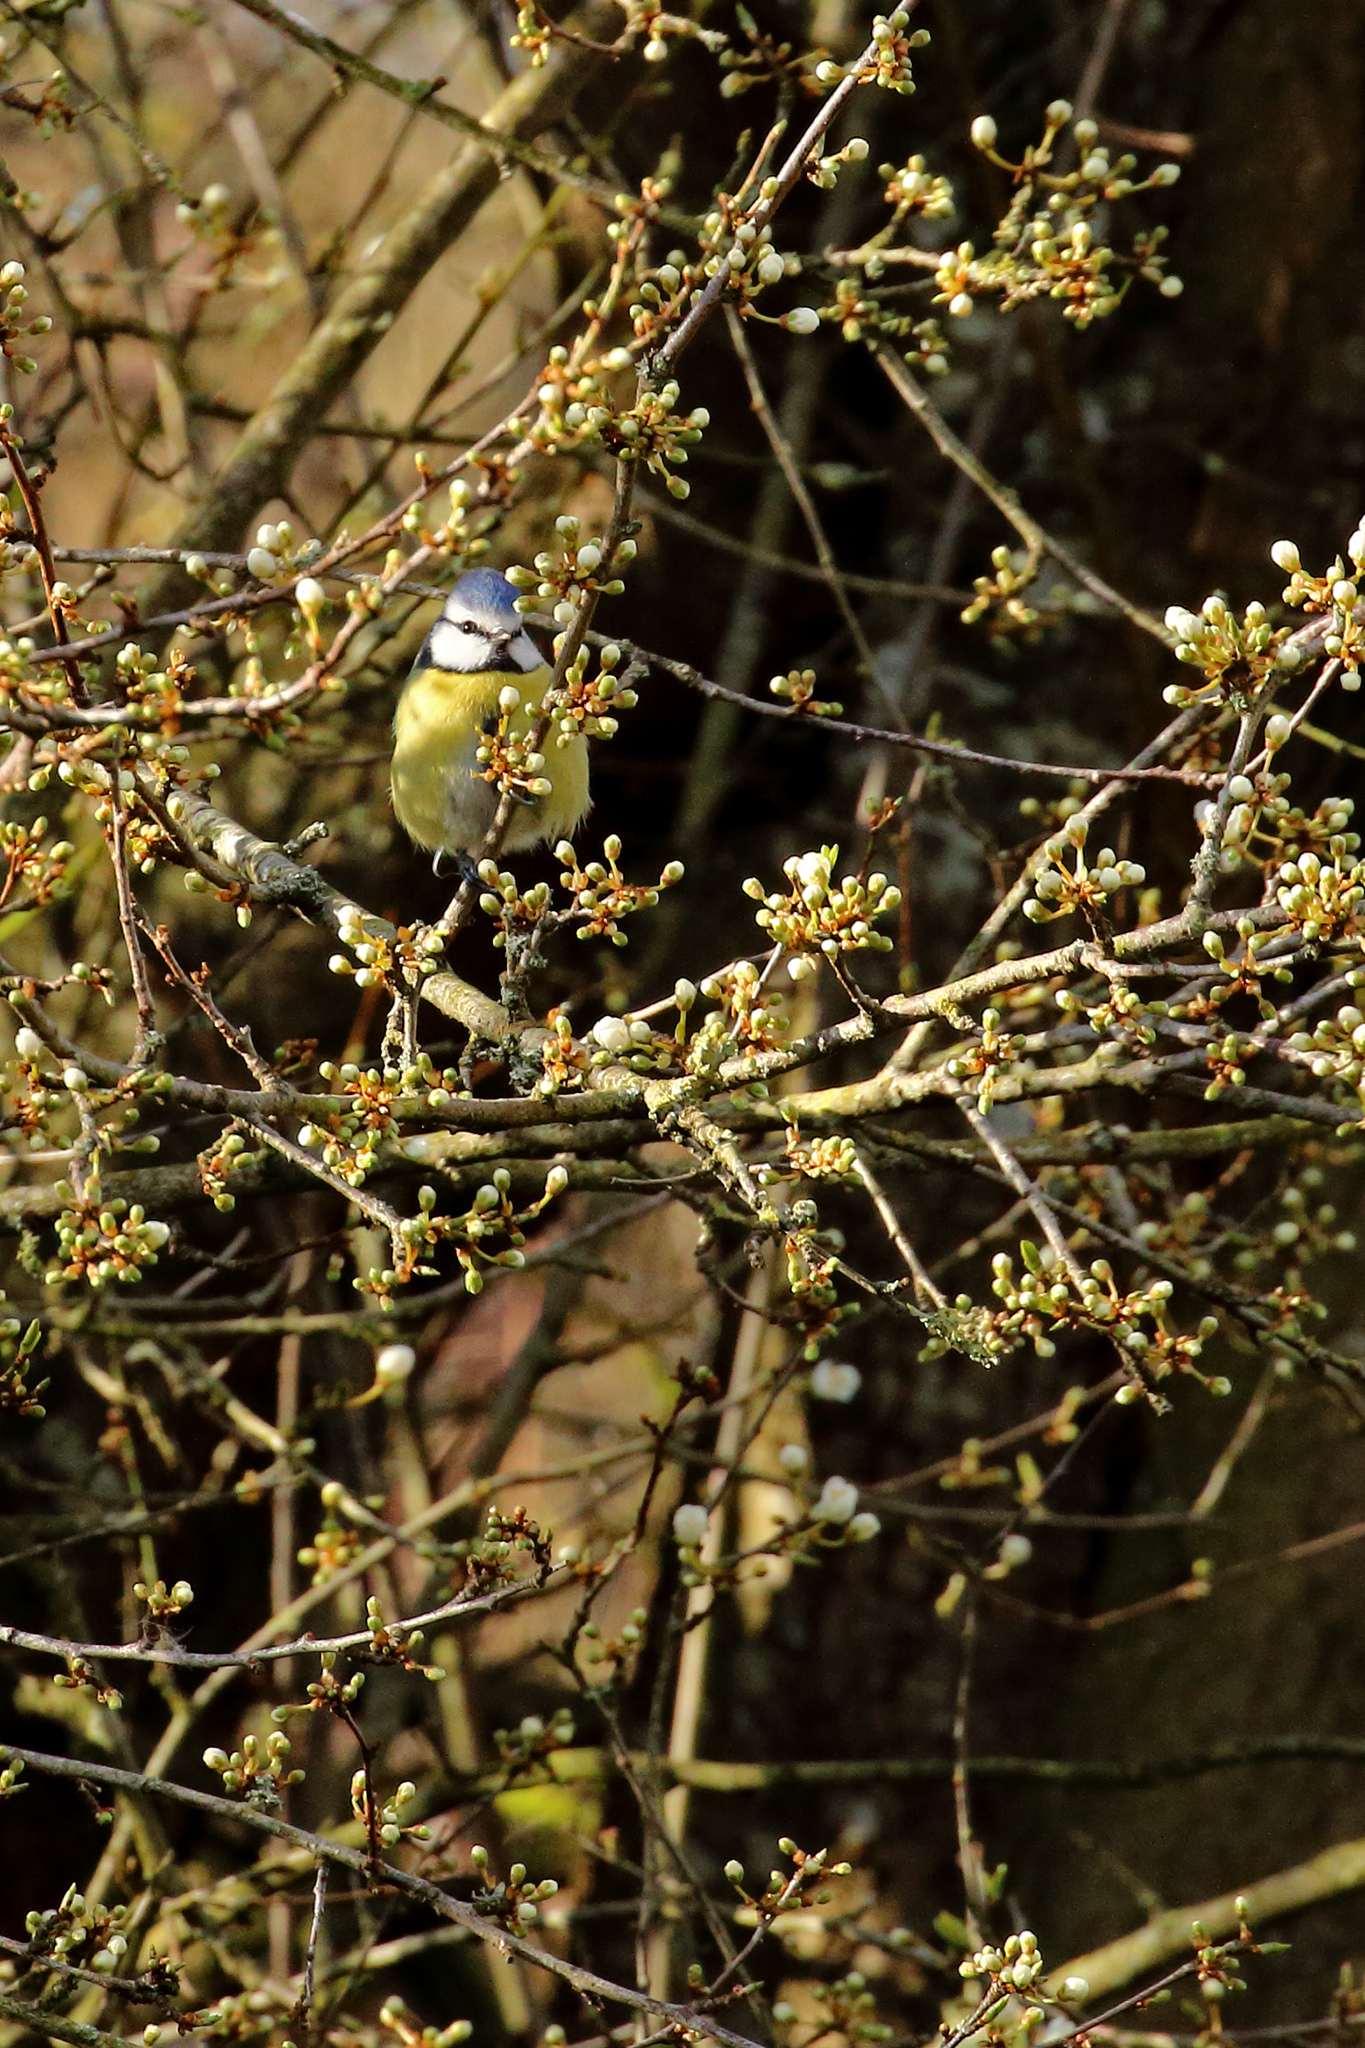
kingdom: Animalia
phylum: Chordata
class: Aves
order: Passeriformes
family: Paridae
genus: Cyanistes
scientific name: Cyanistes caeruleus
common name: Eurasian blue tit
